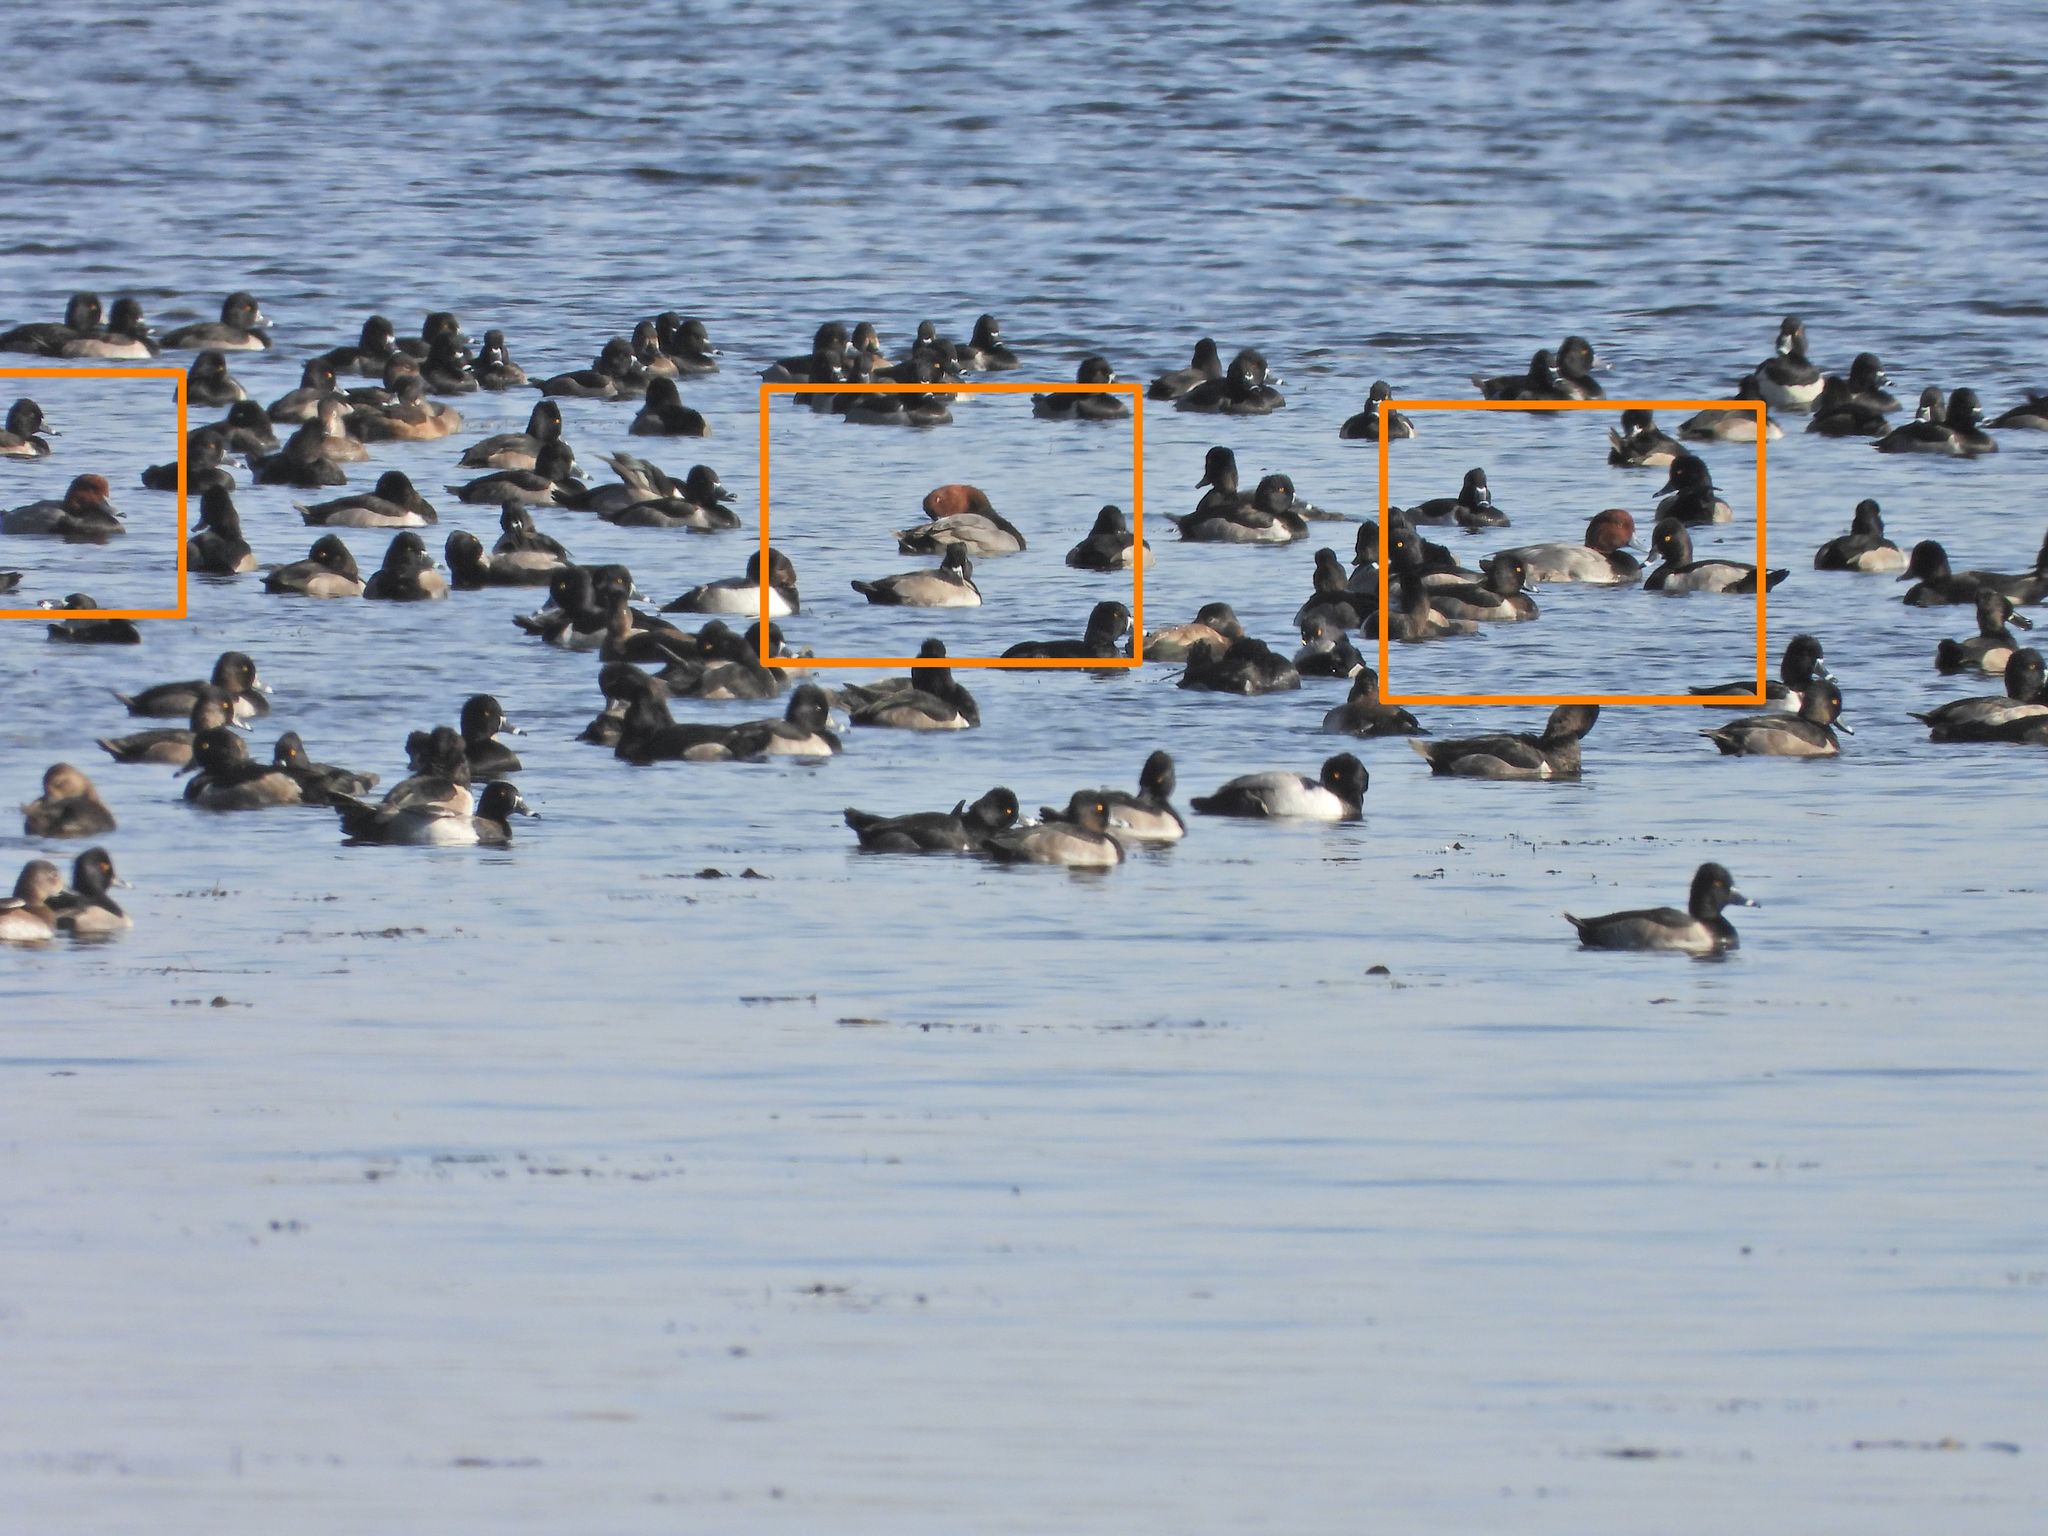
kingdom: Animalia
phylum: Chordata
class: Aves
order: Anseriformes
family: Anatidae
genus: Aythya
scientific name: Aythya americana
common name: Redhead
